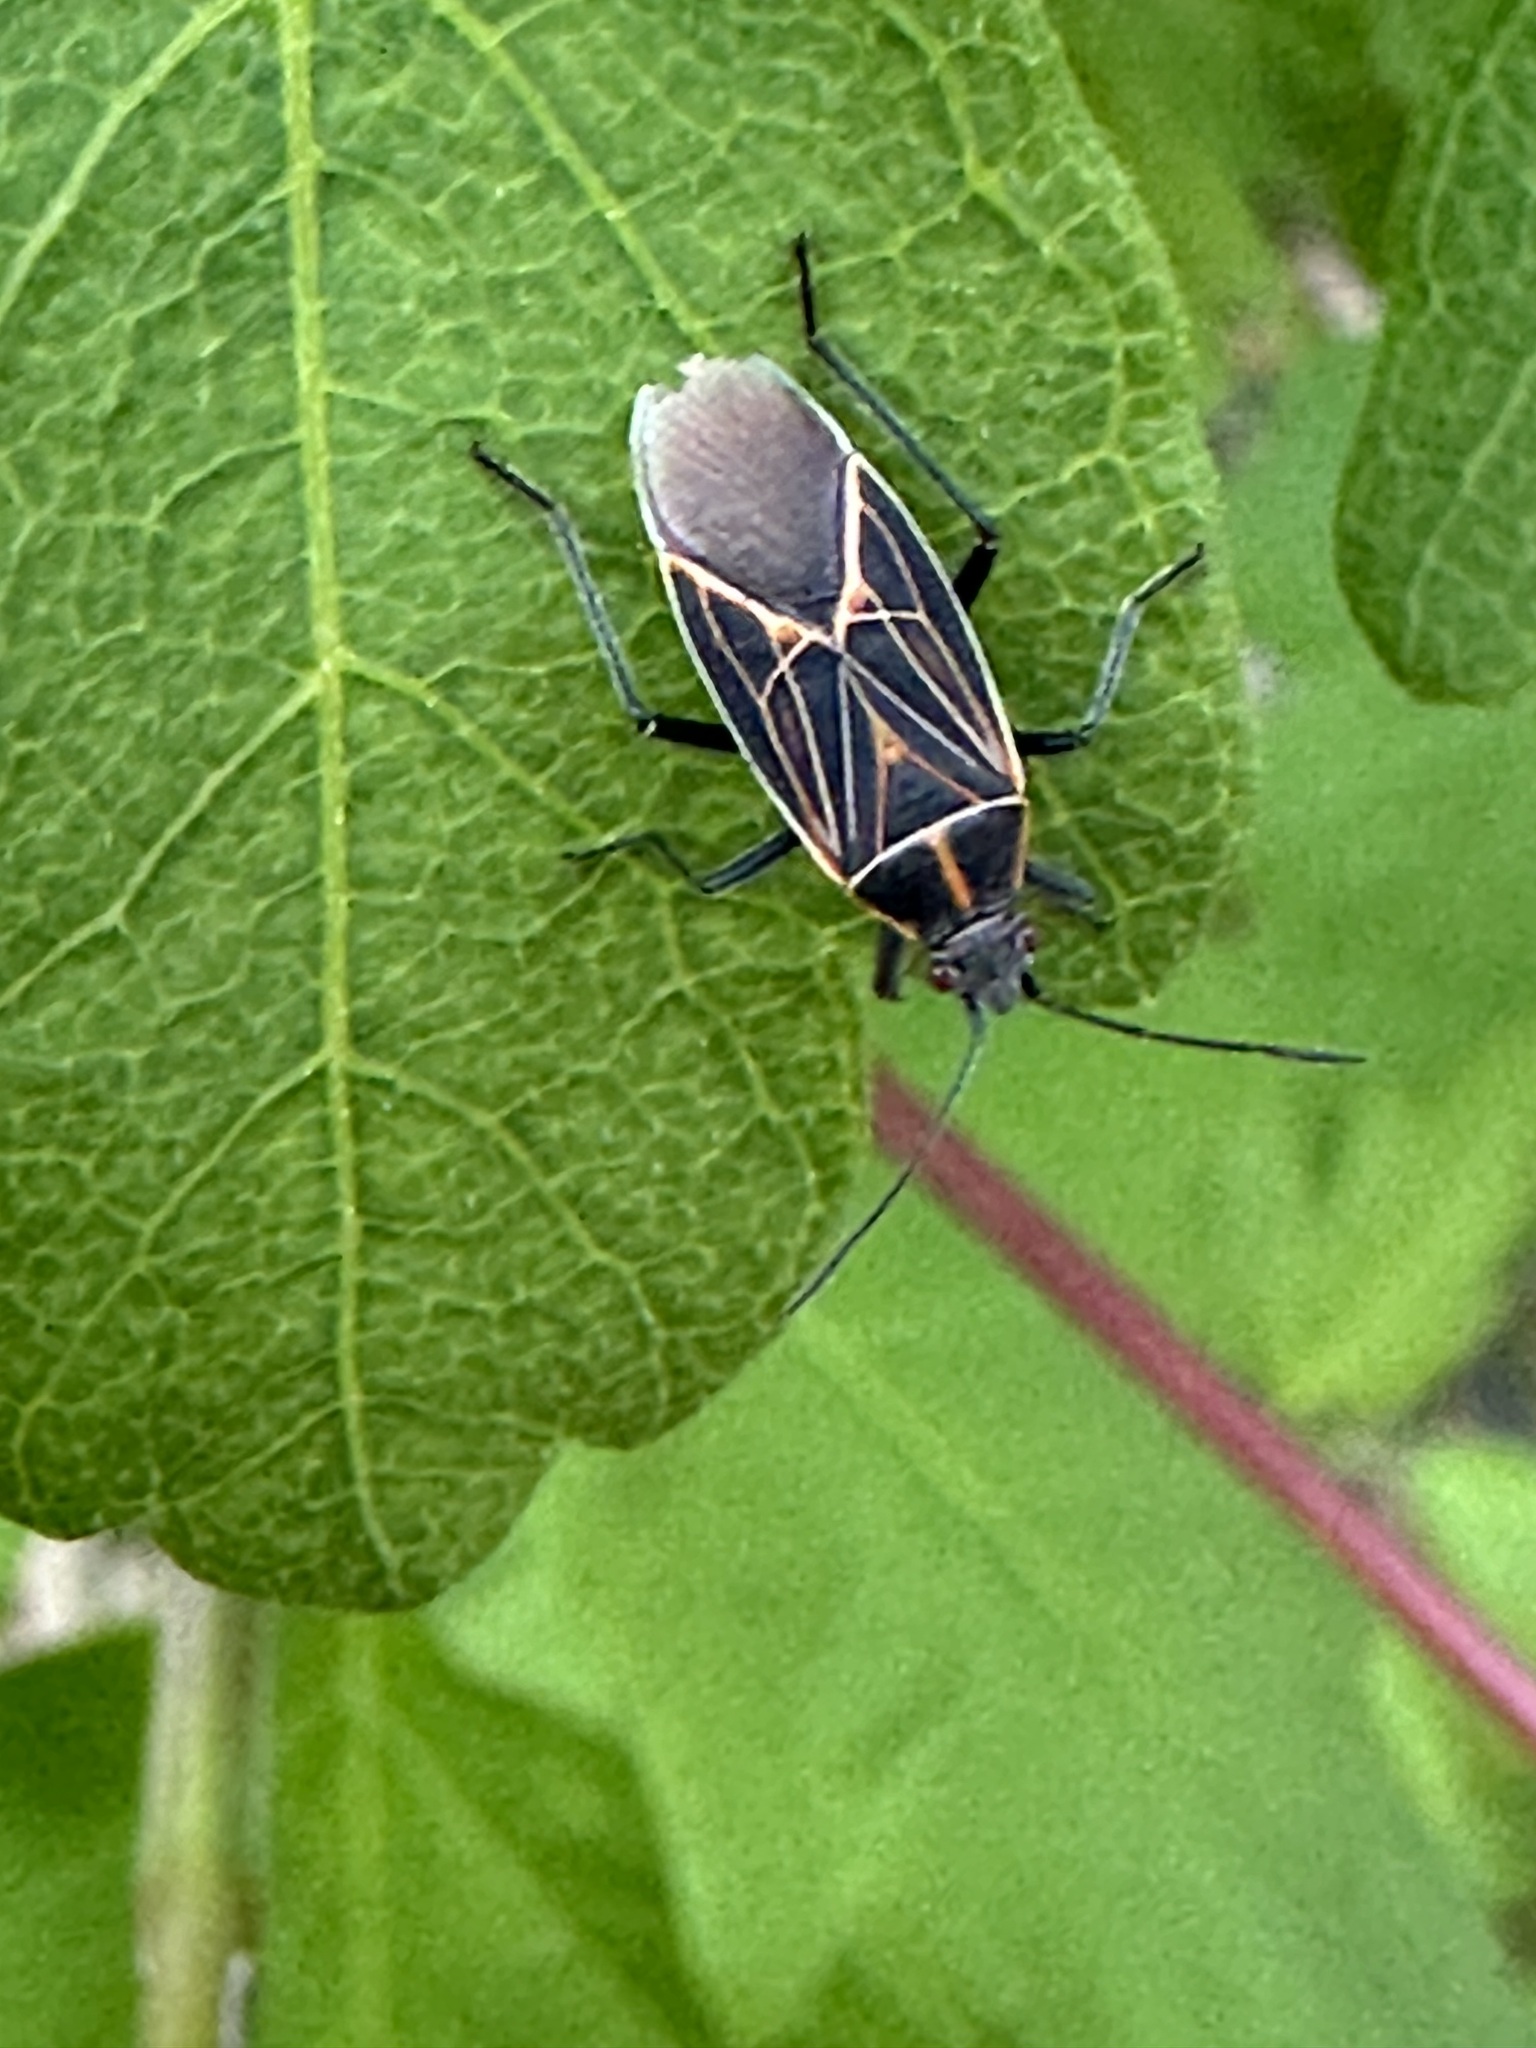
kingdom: Animalia
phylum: Arthropoda
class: Insecta
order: Hemiptera
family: Rhopalidae
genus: Boisea
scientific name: Boisea rubrolineata
